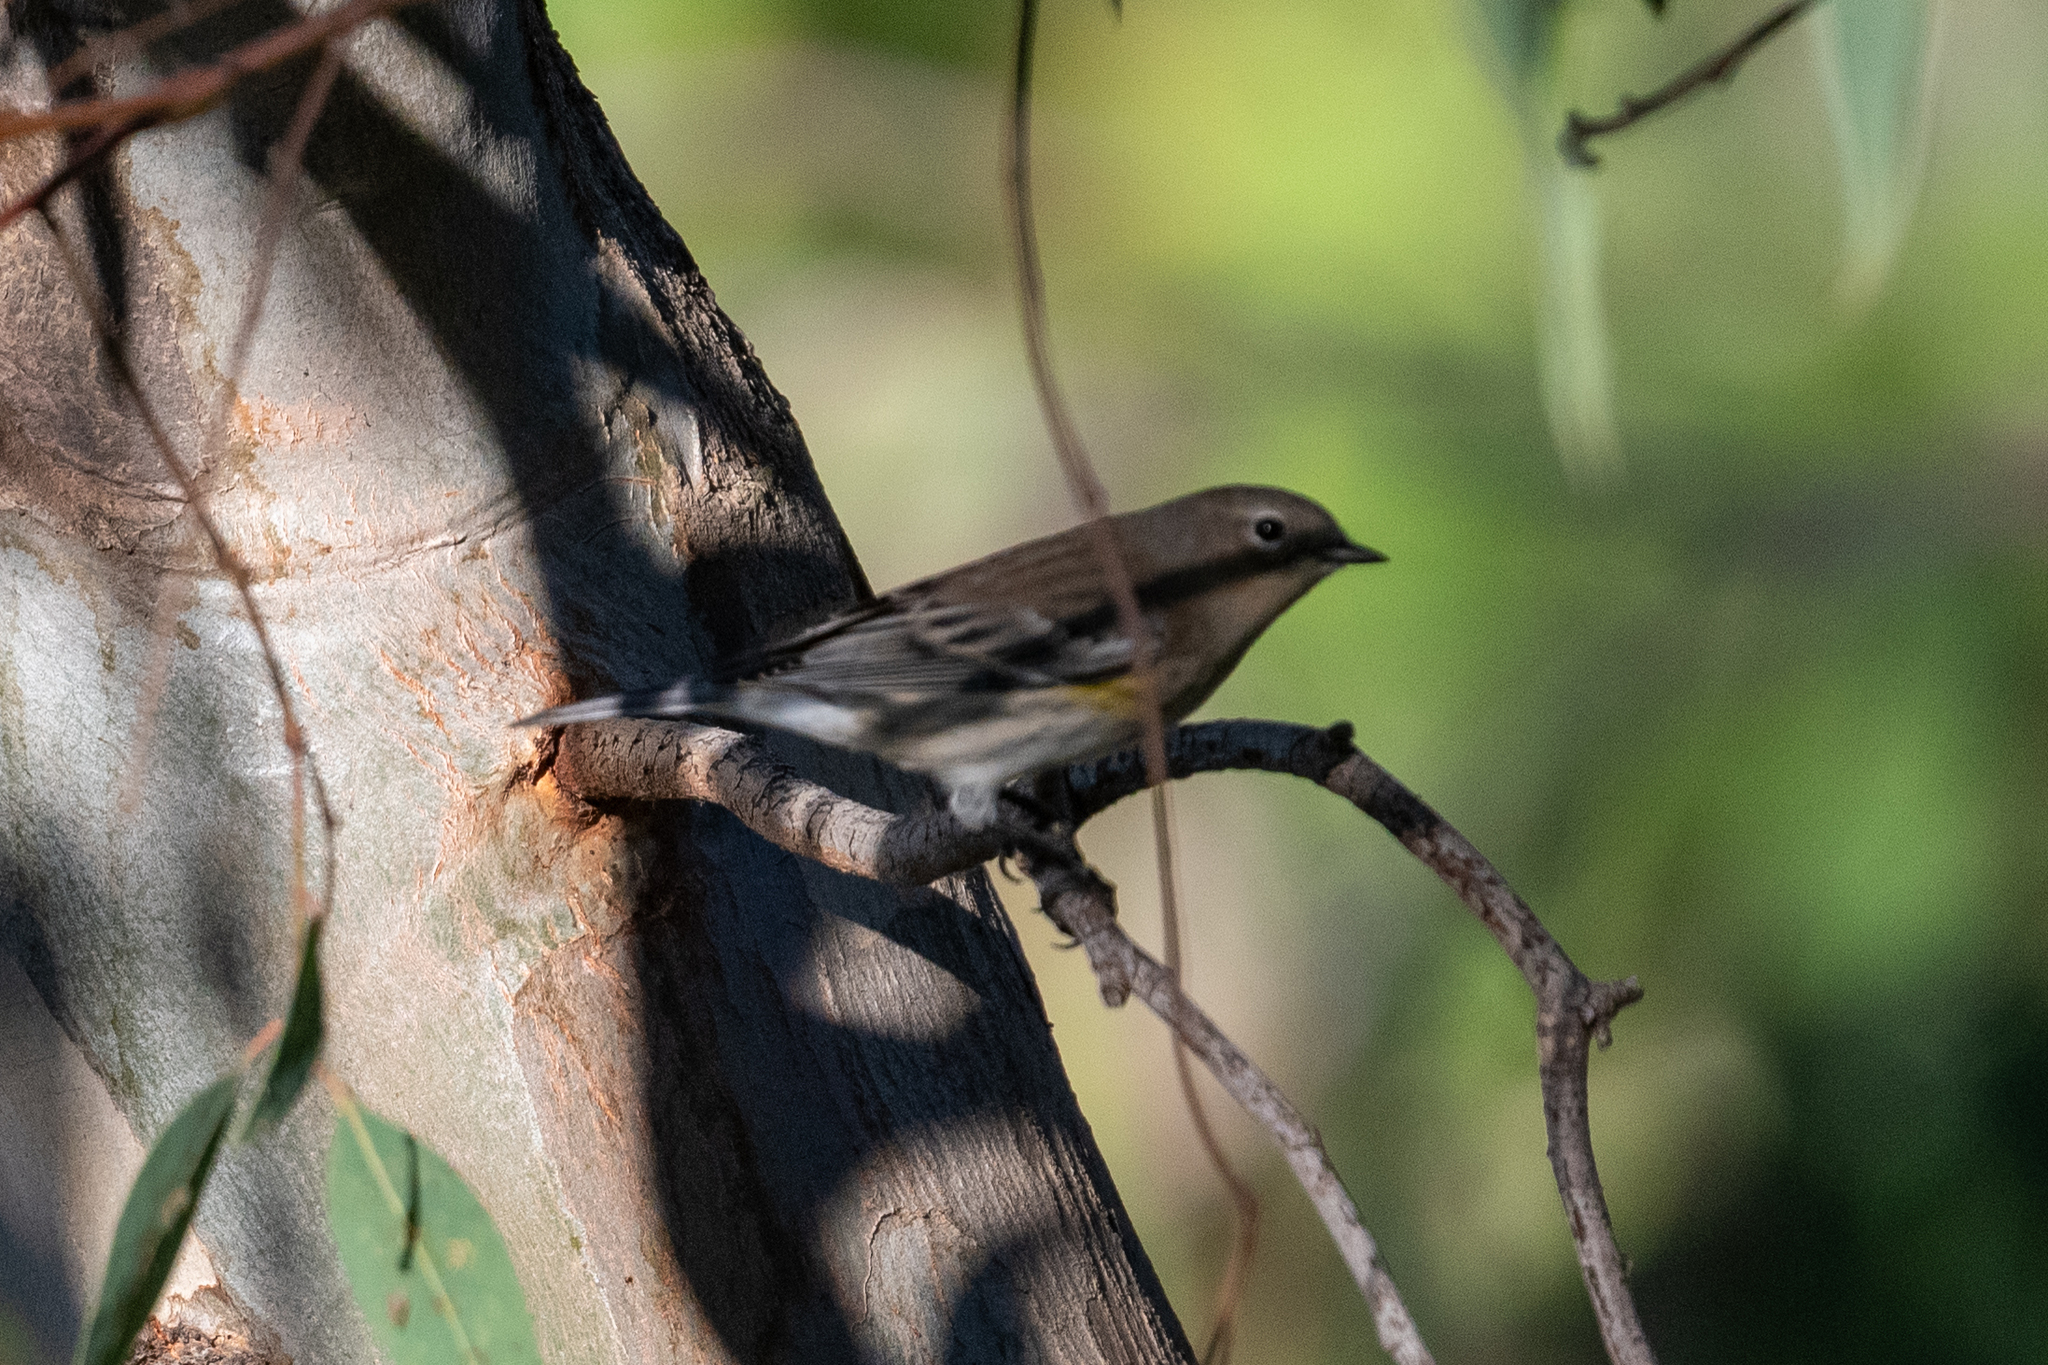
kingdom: Animalia
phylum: Chordata
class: Aves
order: Passeriformes
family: Parulidae
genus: Setophaga
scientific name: Setophaga coronata
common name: Myrtle warbler
